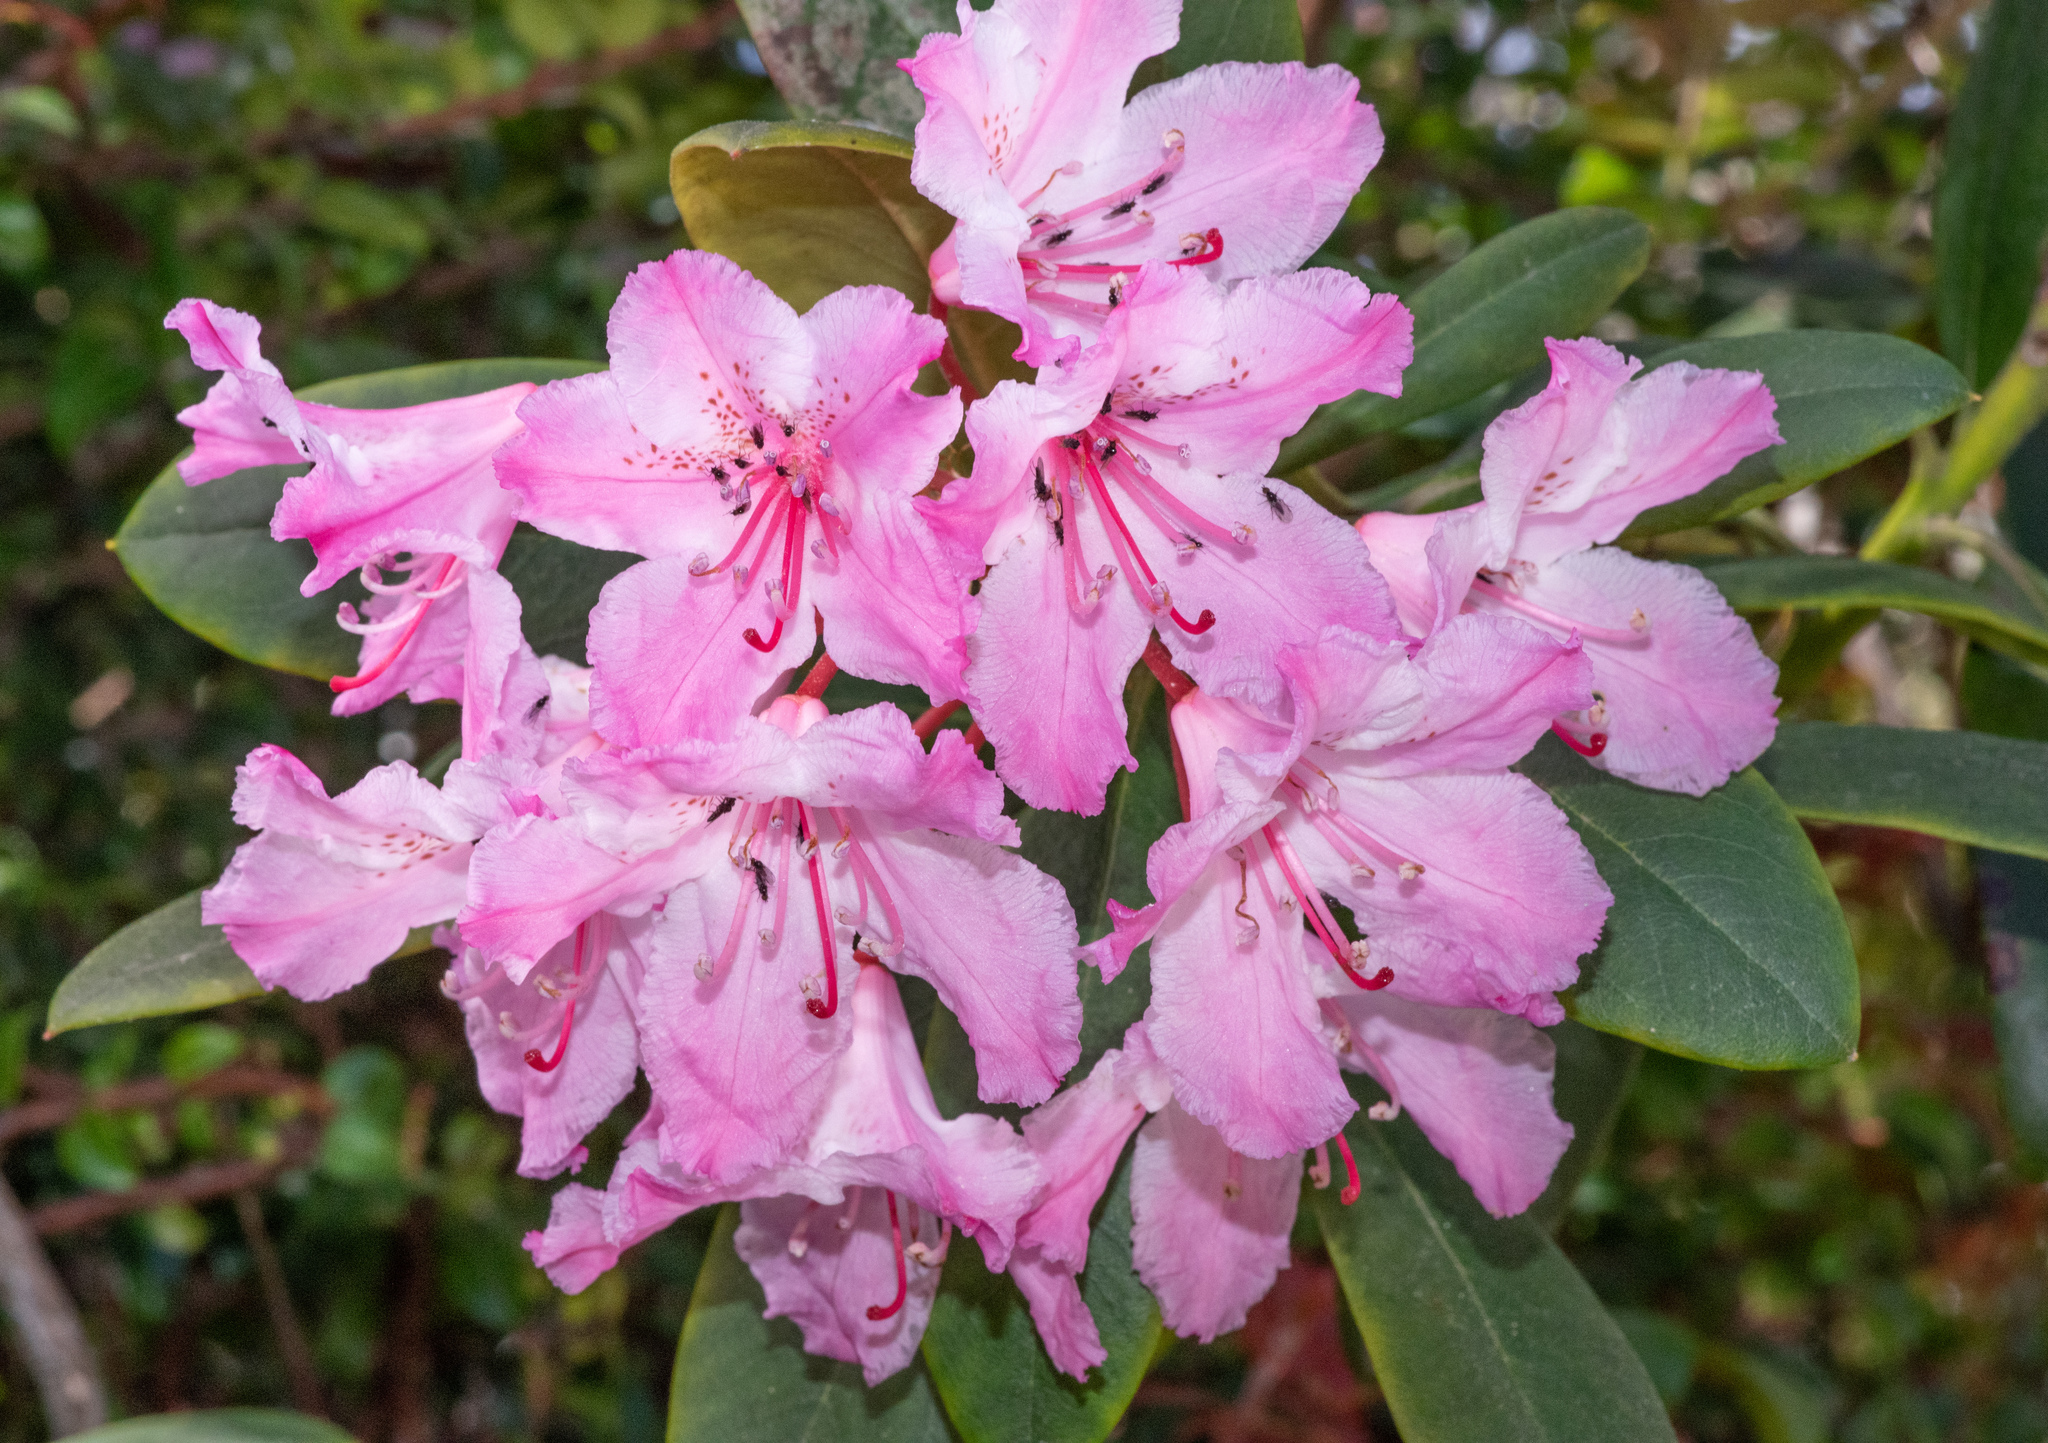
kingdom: Plantae
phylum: Tracheophyta
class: Magnoliopsida
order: Ericales
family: Ericaceae
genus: Rhododendron
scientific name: Rhododendron macrophyllum
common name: California rose bay
